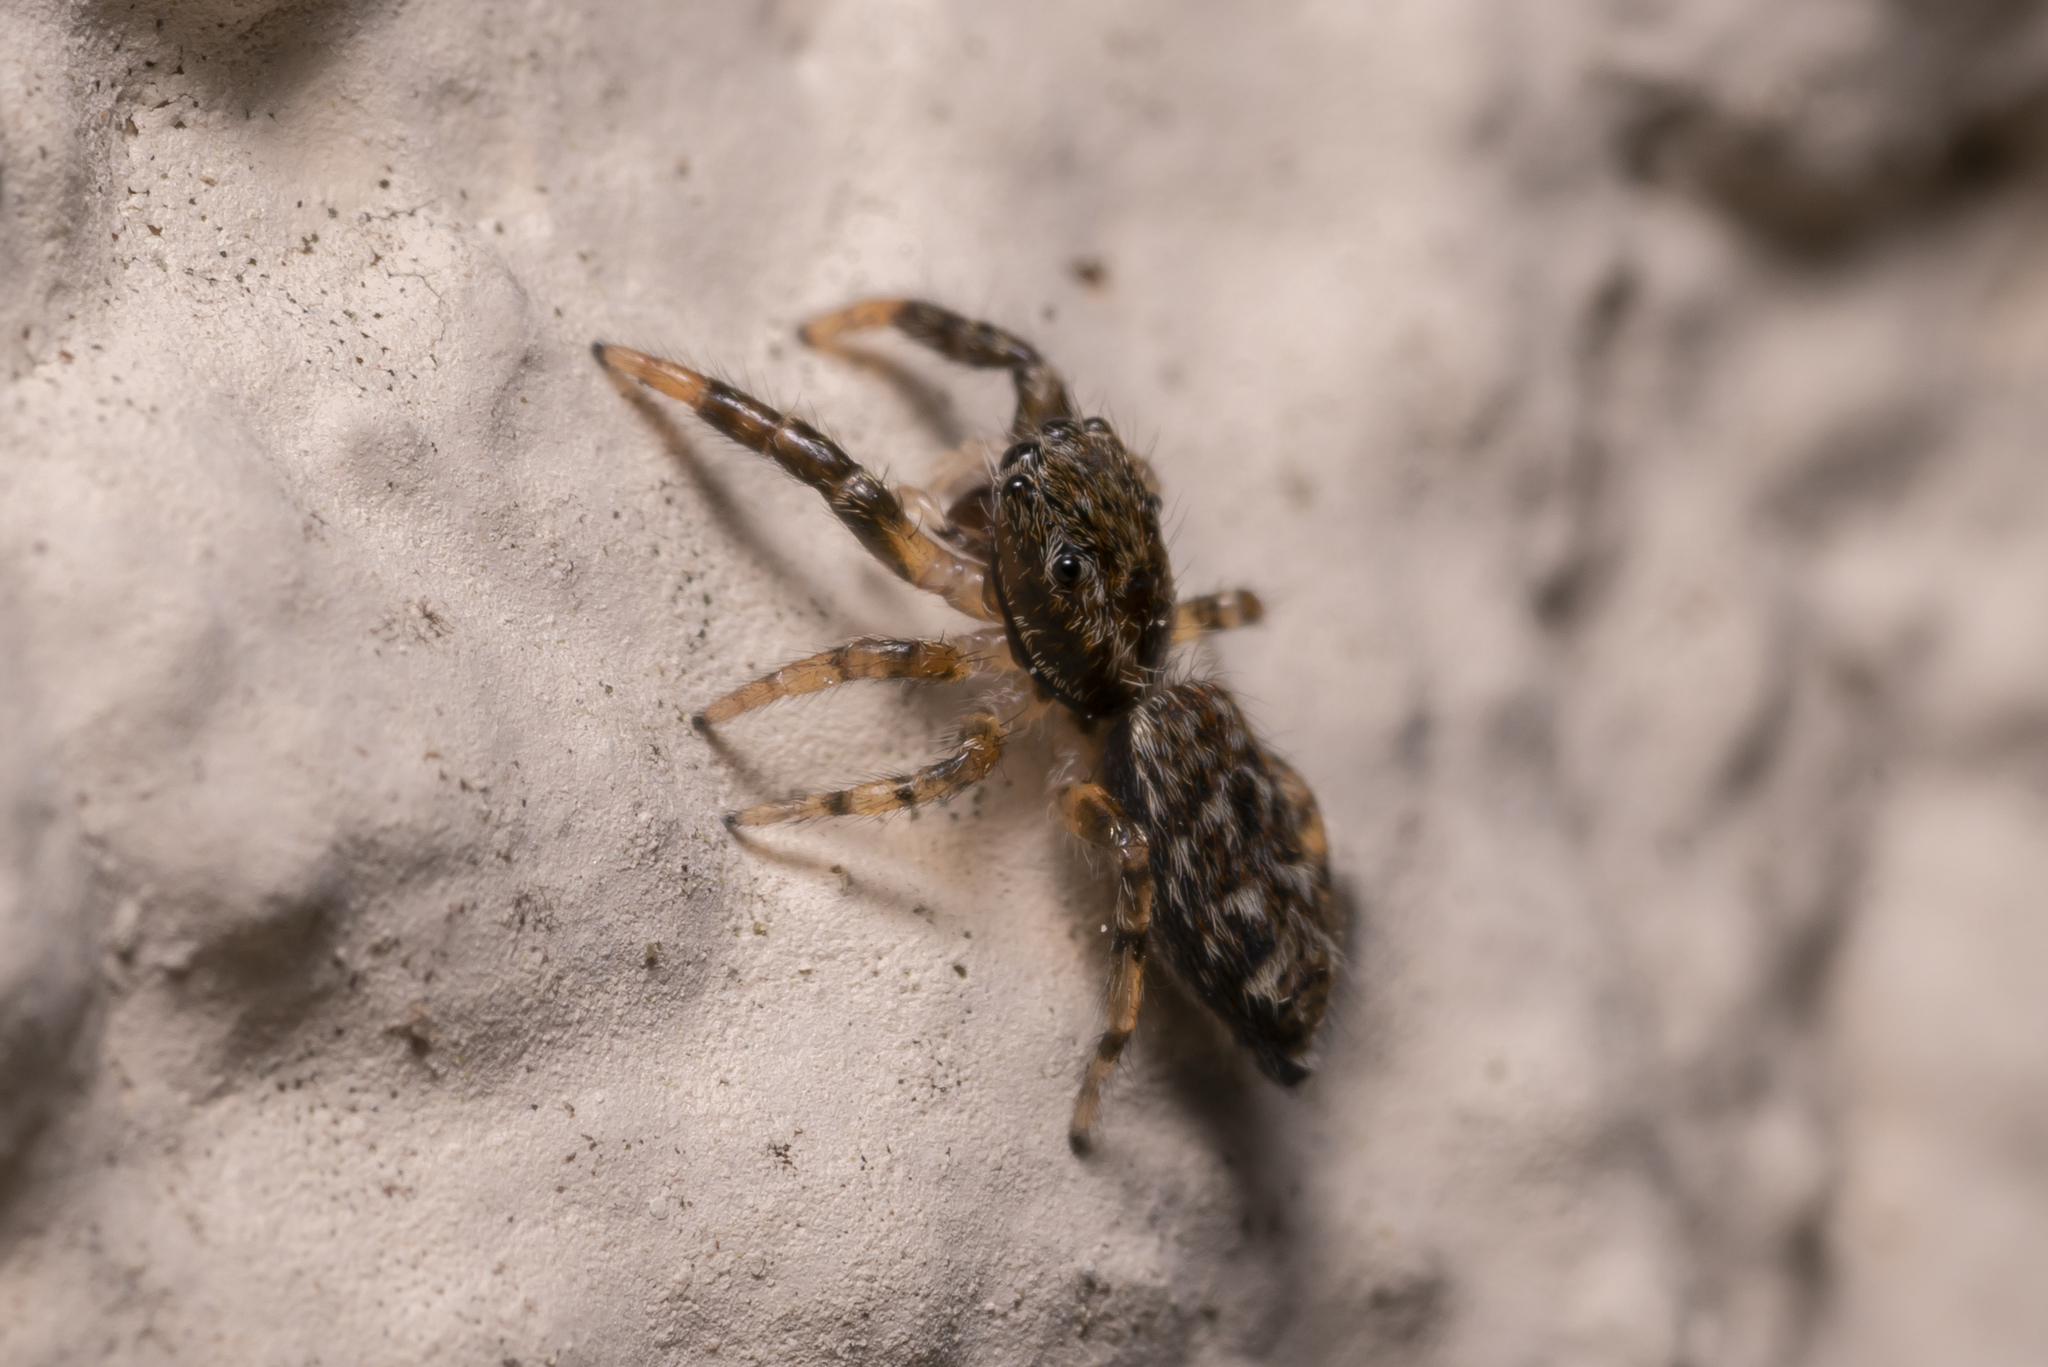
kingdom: Animalia
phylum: Arthropoda
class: Arachnida
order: Araneae
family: Salticidae
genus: Marpissa
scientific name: Marpissa muscosa
